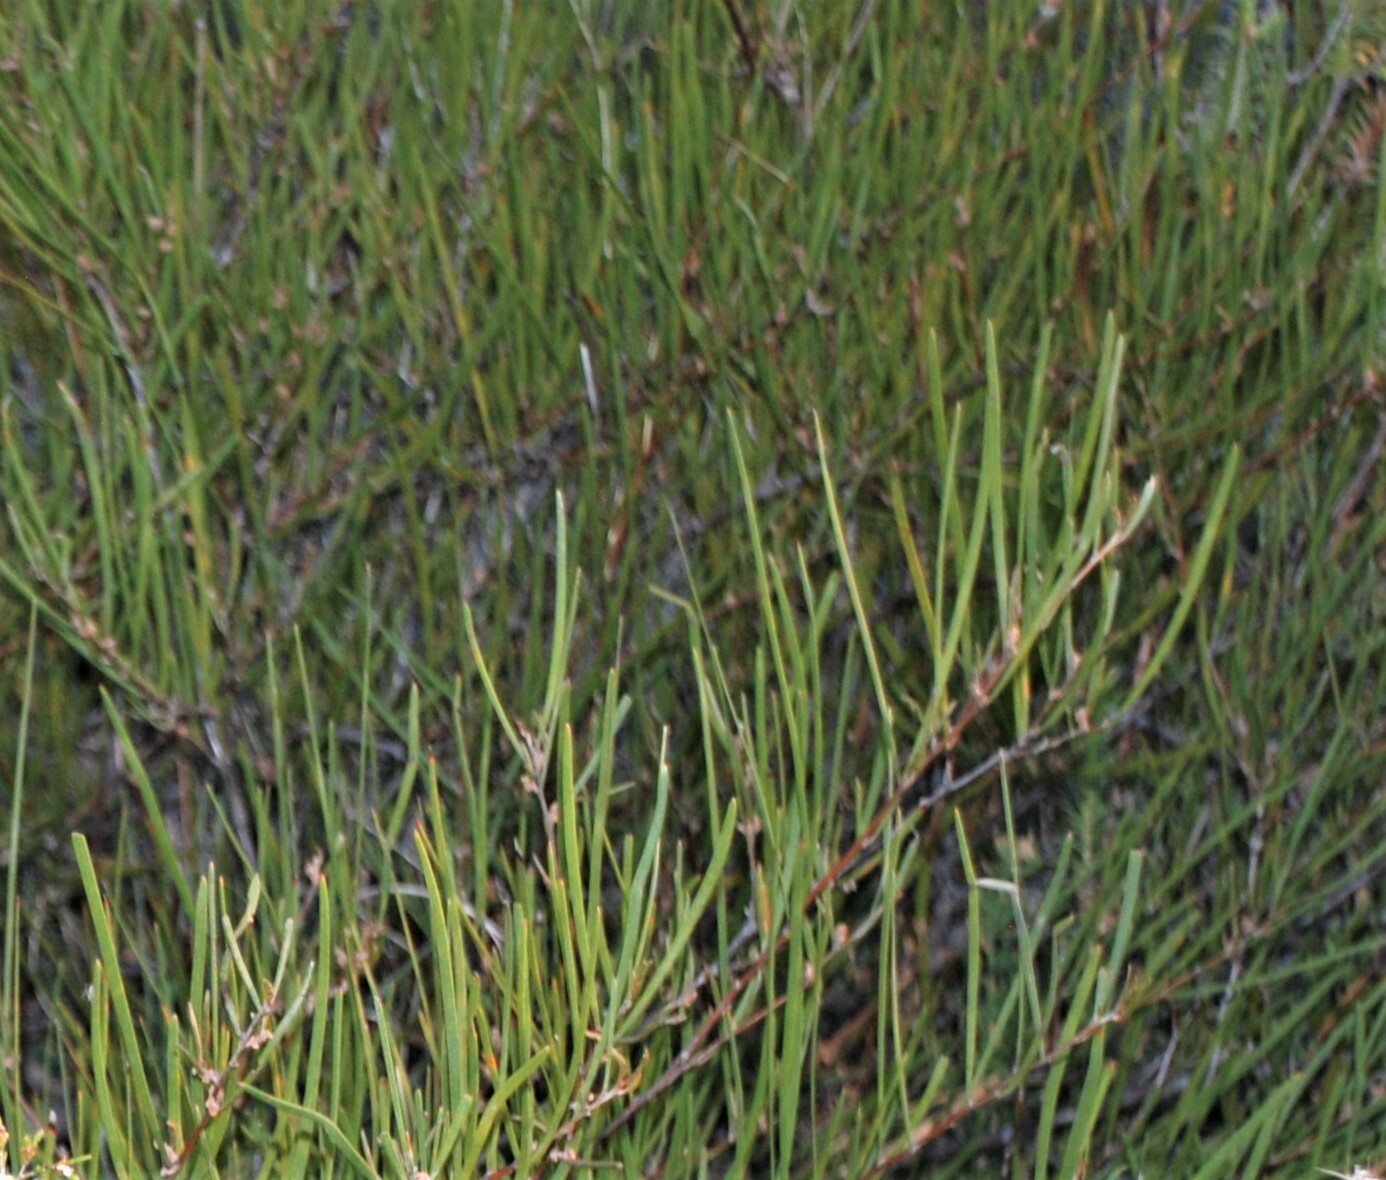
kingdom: Plantae
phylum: Tracheophyta
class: Magnoliopsida
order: Fabales
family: Fabaceae
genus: Acacia
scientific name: Acacia granitica
